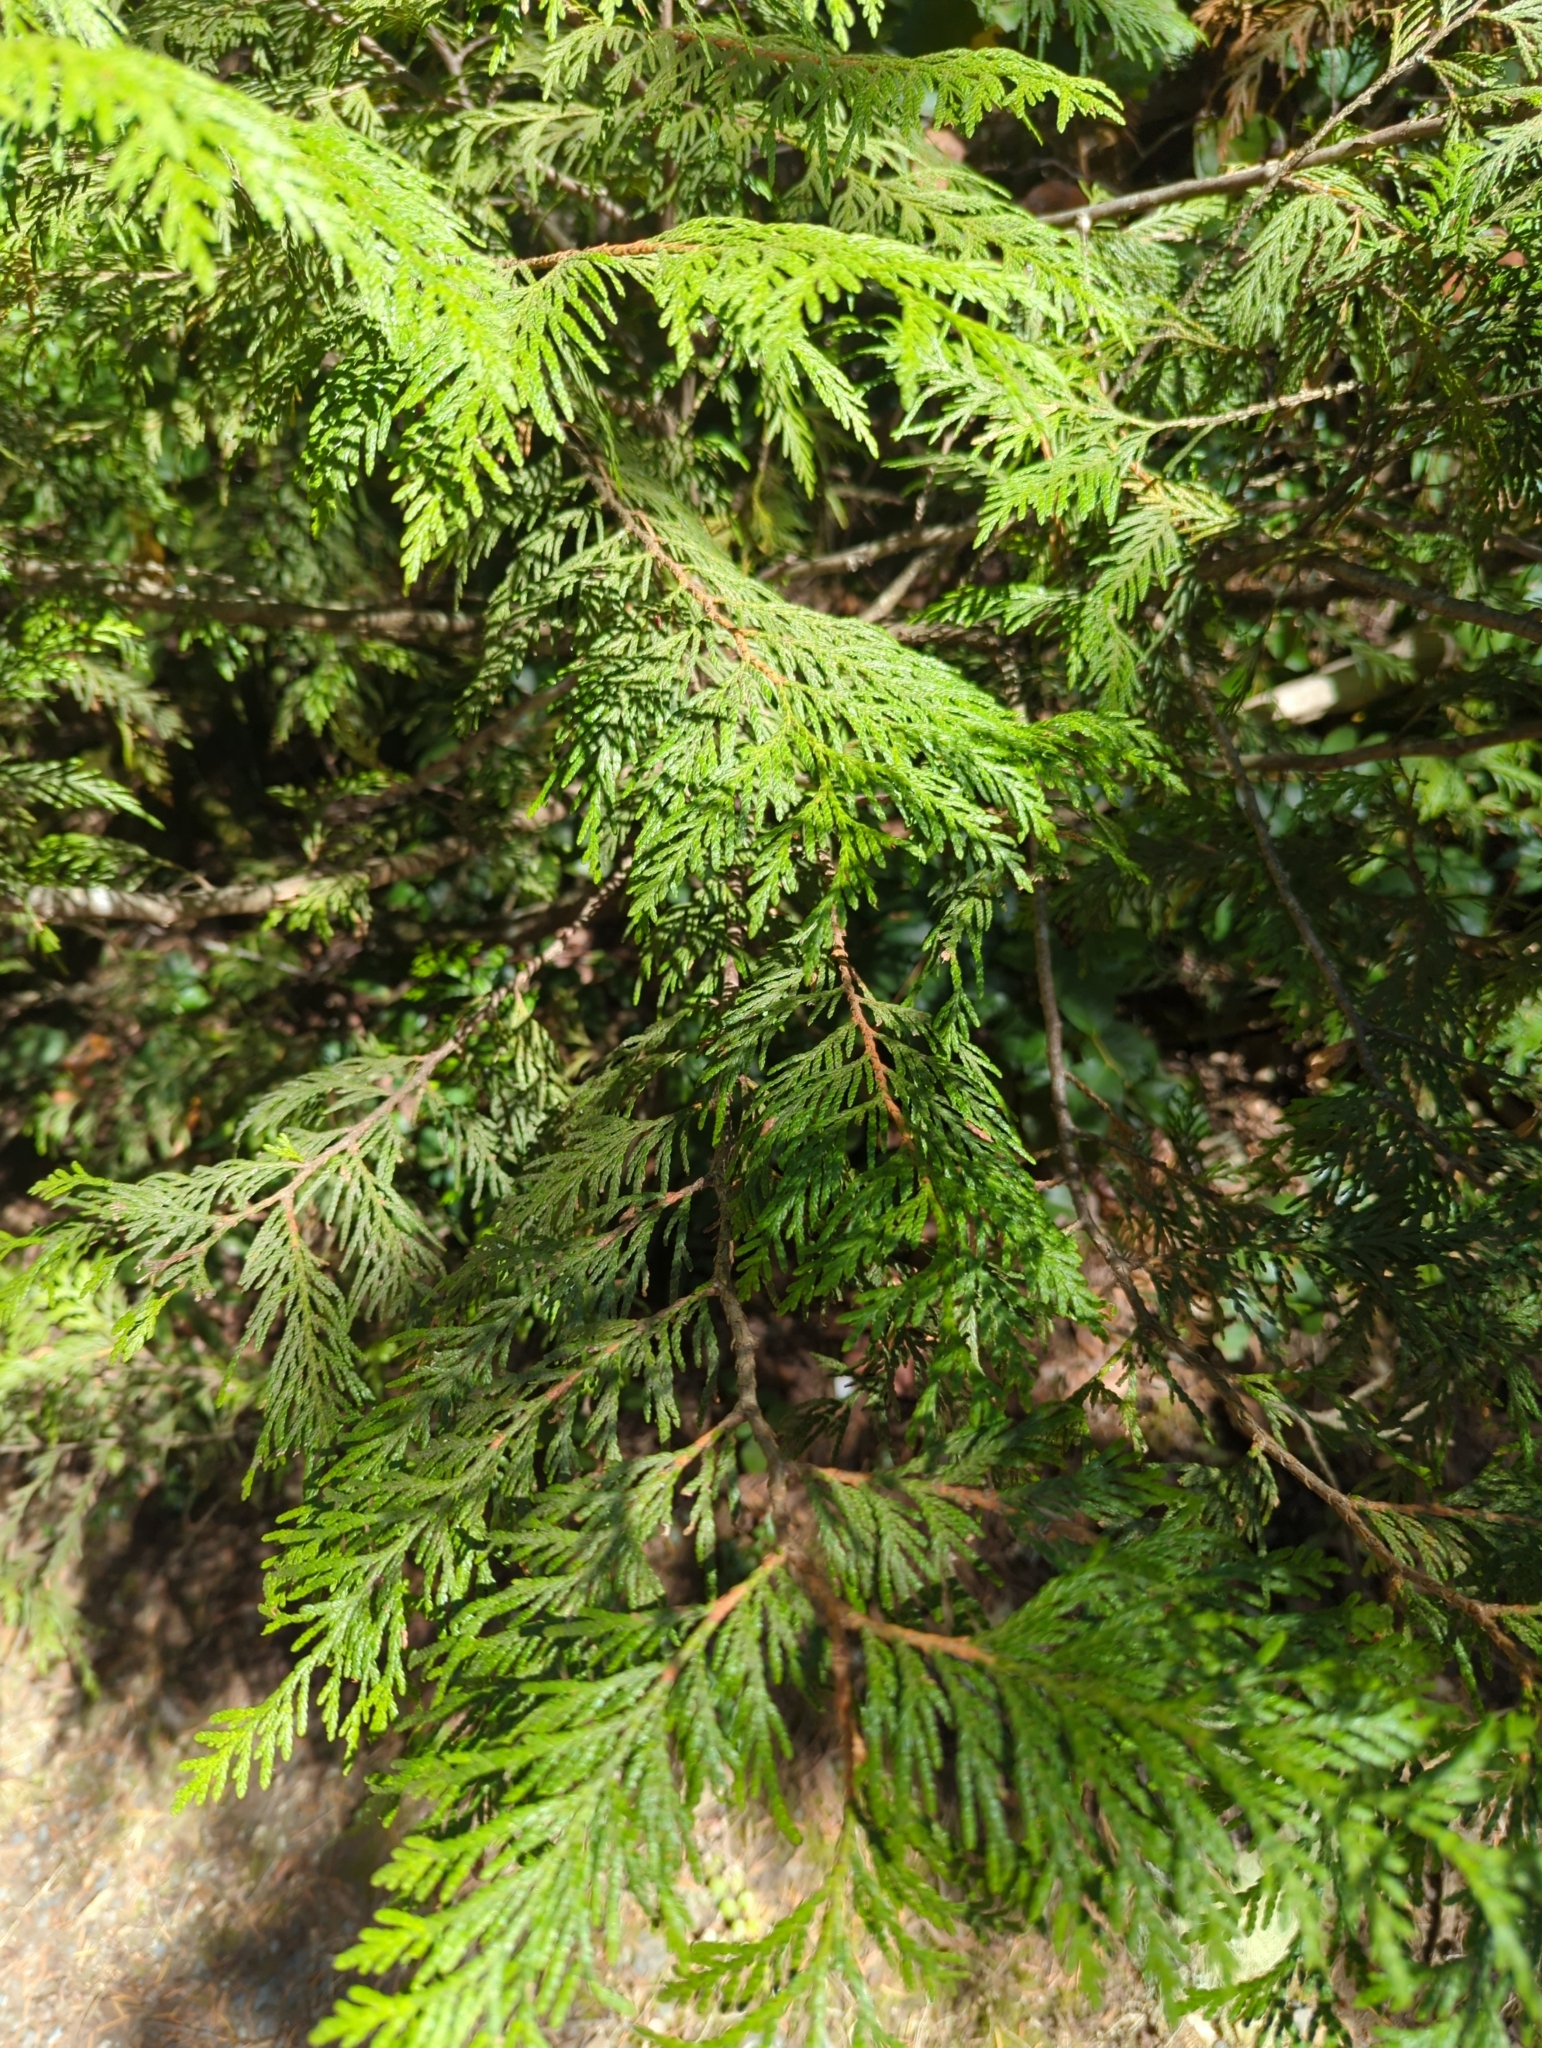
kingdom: Plantae
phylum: Tracheophyta
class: Pinopsida
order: Pinales
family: Cupressaceae
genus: Thuja
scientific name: Thuja plicata
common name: Western red-cedar
